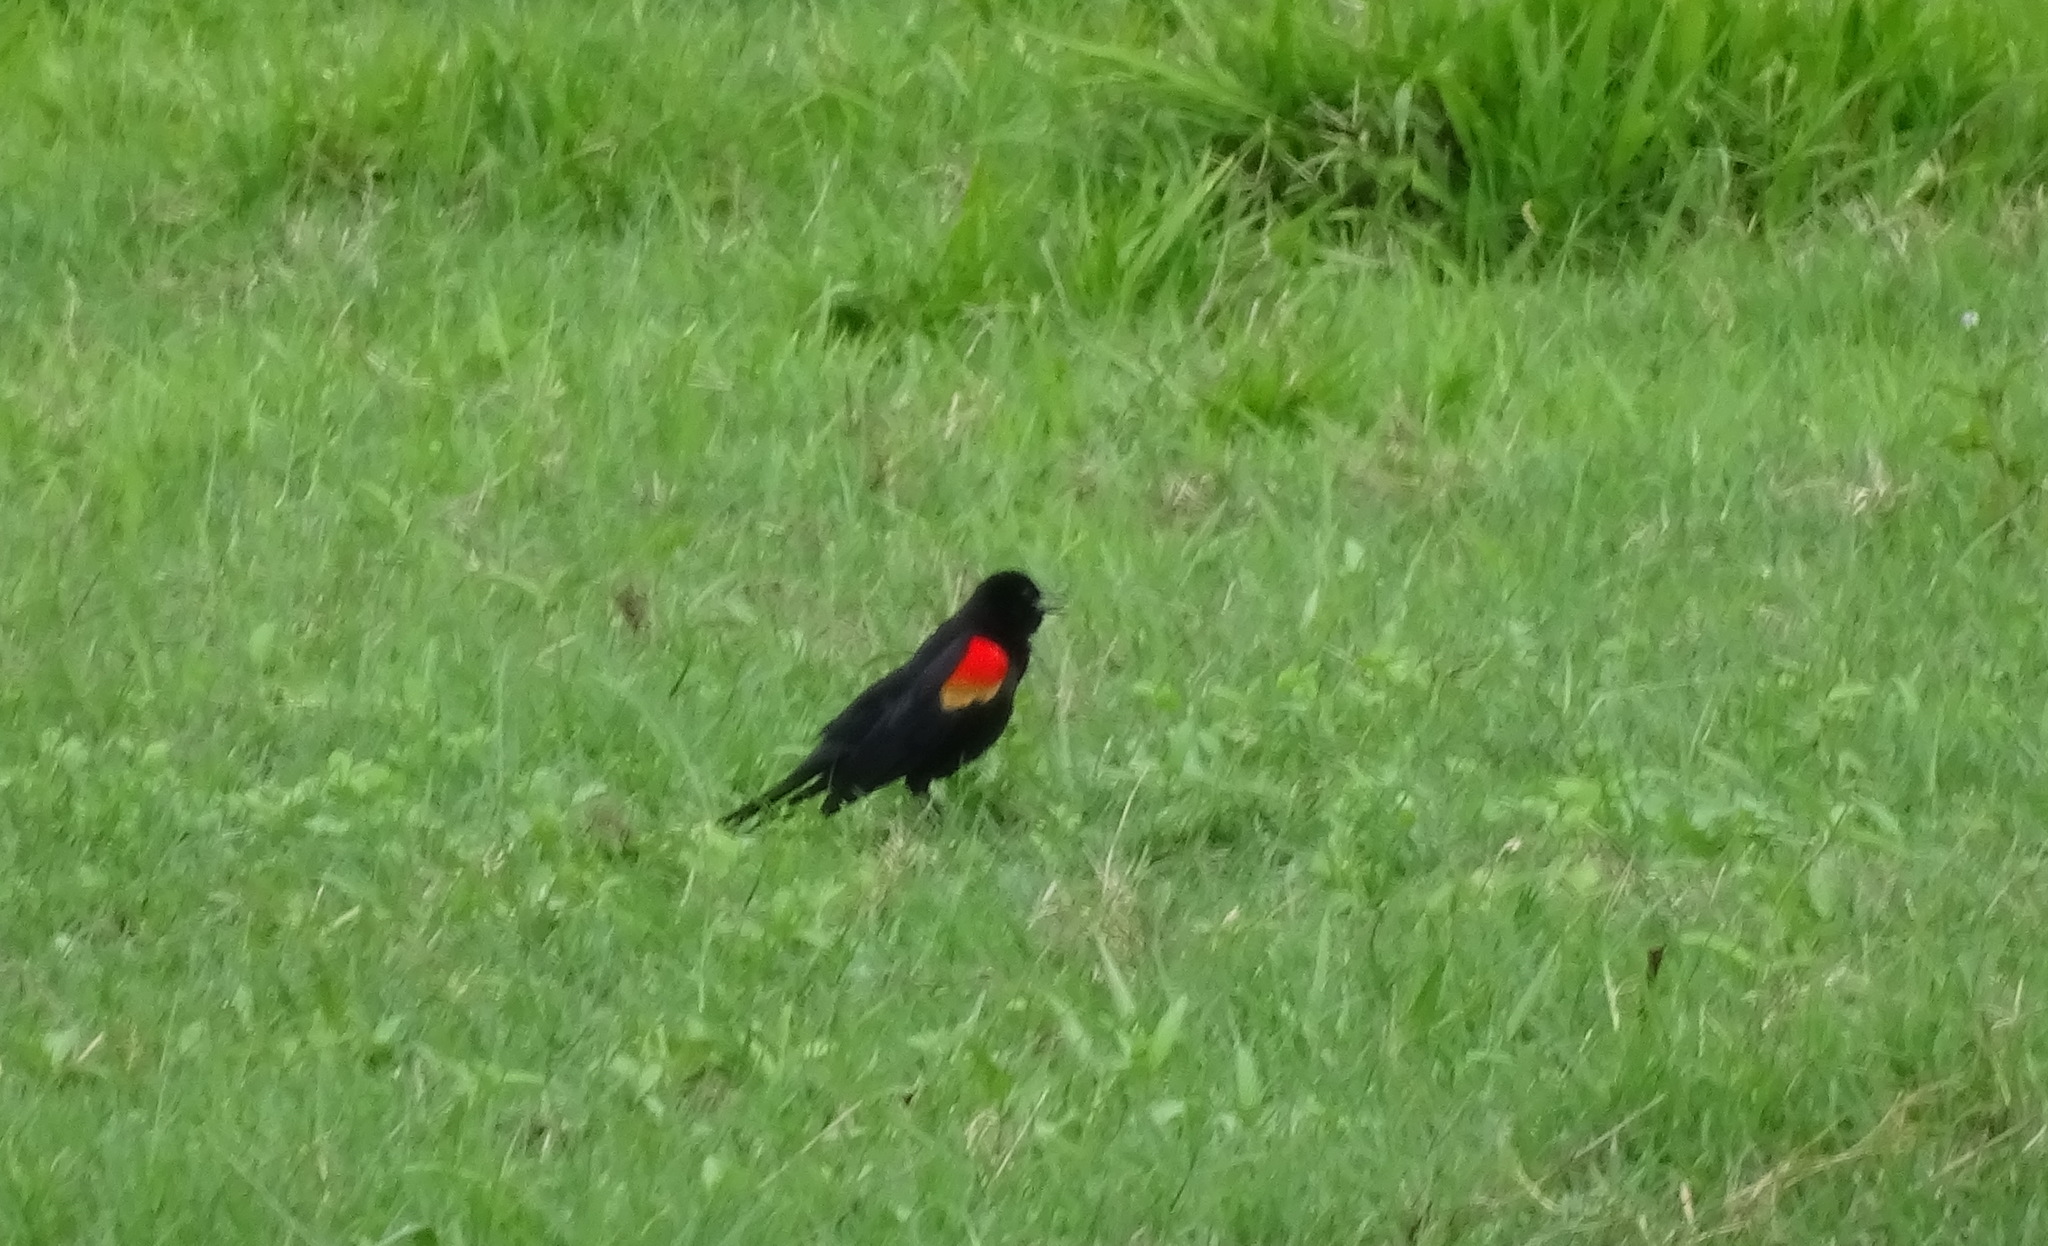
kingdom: Animalia
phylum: Chordata
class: Aves
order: Passeriformes
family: Icteridae
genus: Agelaius
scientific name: Agelaius phoeniceus
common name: Red-winged blackbird
